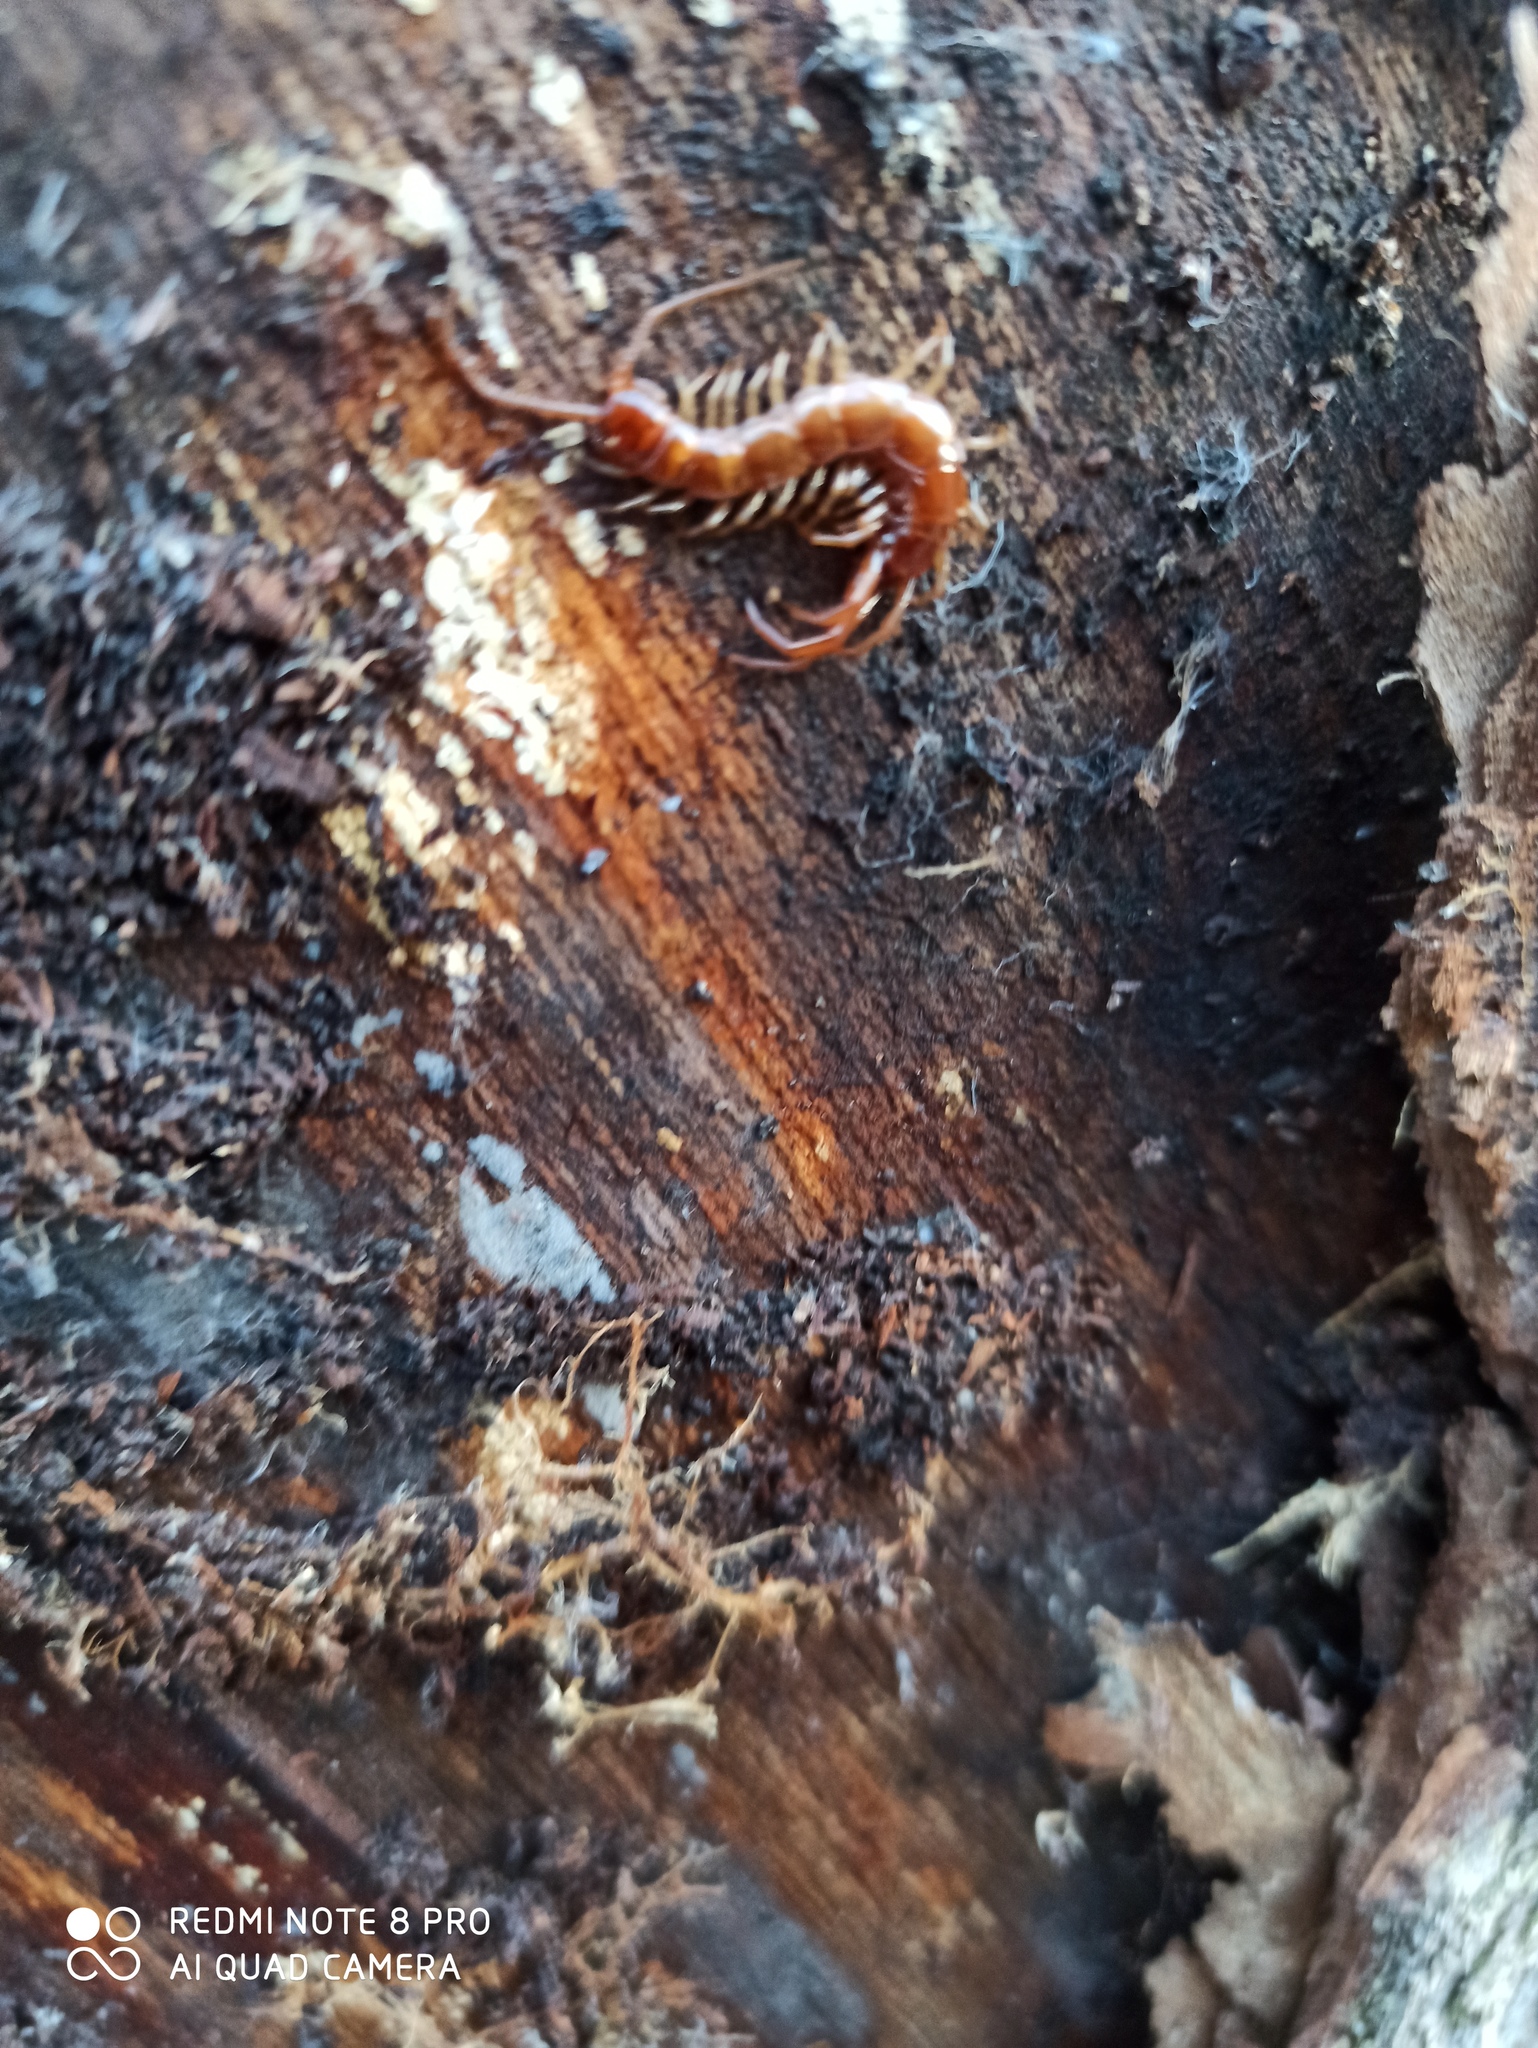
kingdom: Animalia
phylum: Arthropoda
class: Chilopoda
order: Lithobiomorpha
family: Lithobiidae
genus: Lithobius
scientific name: Lithobius forficatus
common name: Centipede
